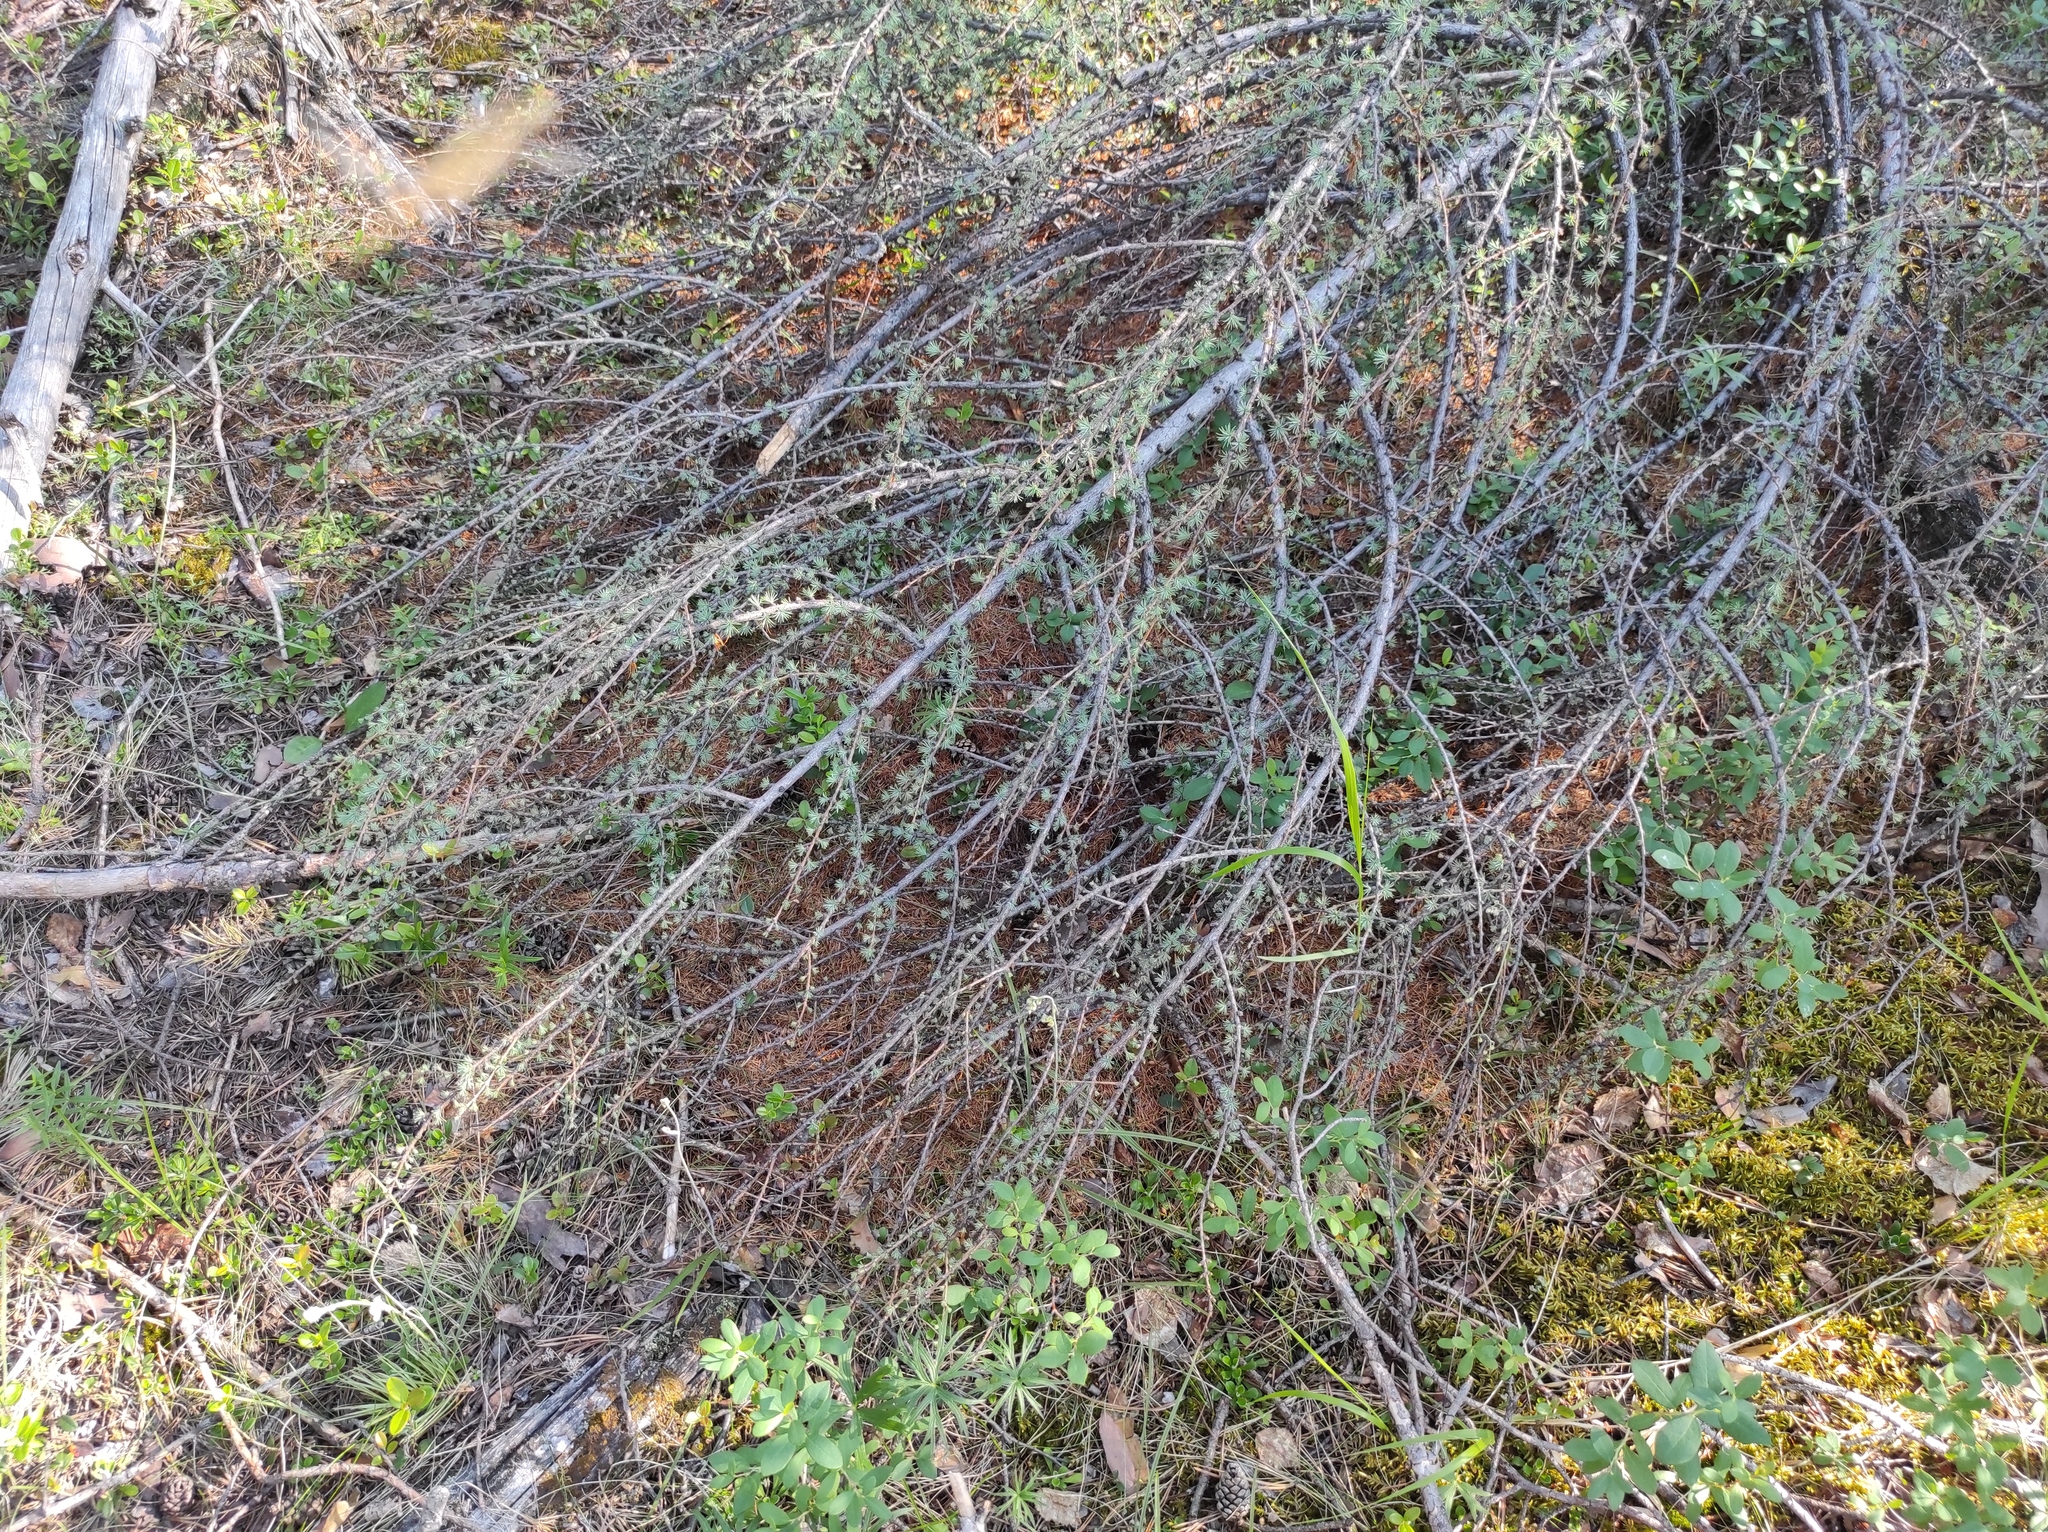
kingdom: Plantae
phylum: Tracheophyta
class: Pinopsida
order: Pinales
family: Pinaceae
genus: Larix
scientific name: Larix gmelinii
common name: Dahurian larch
